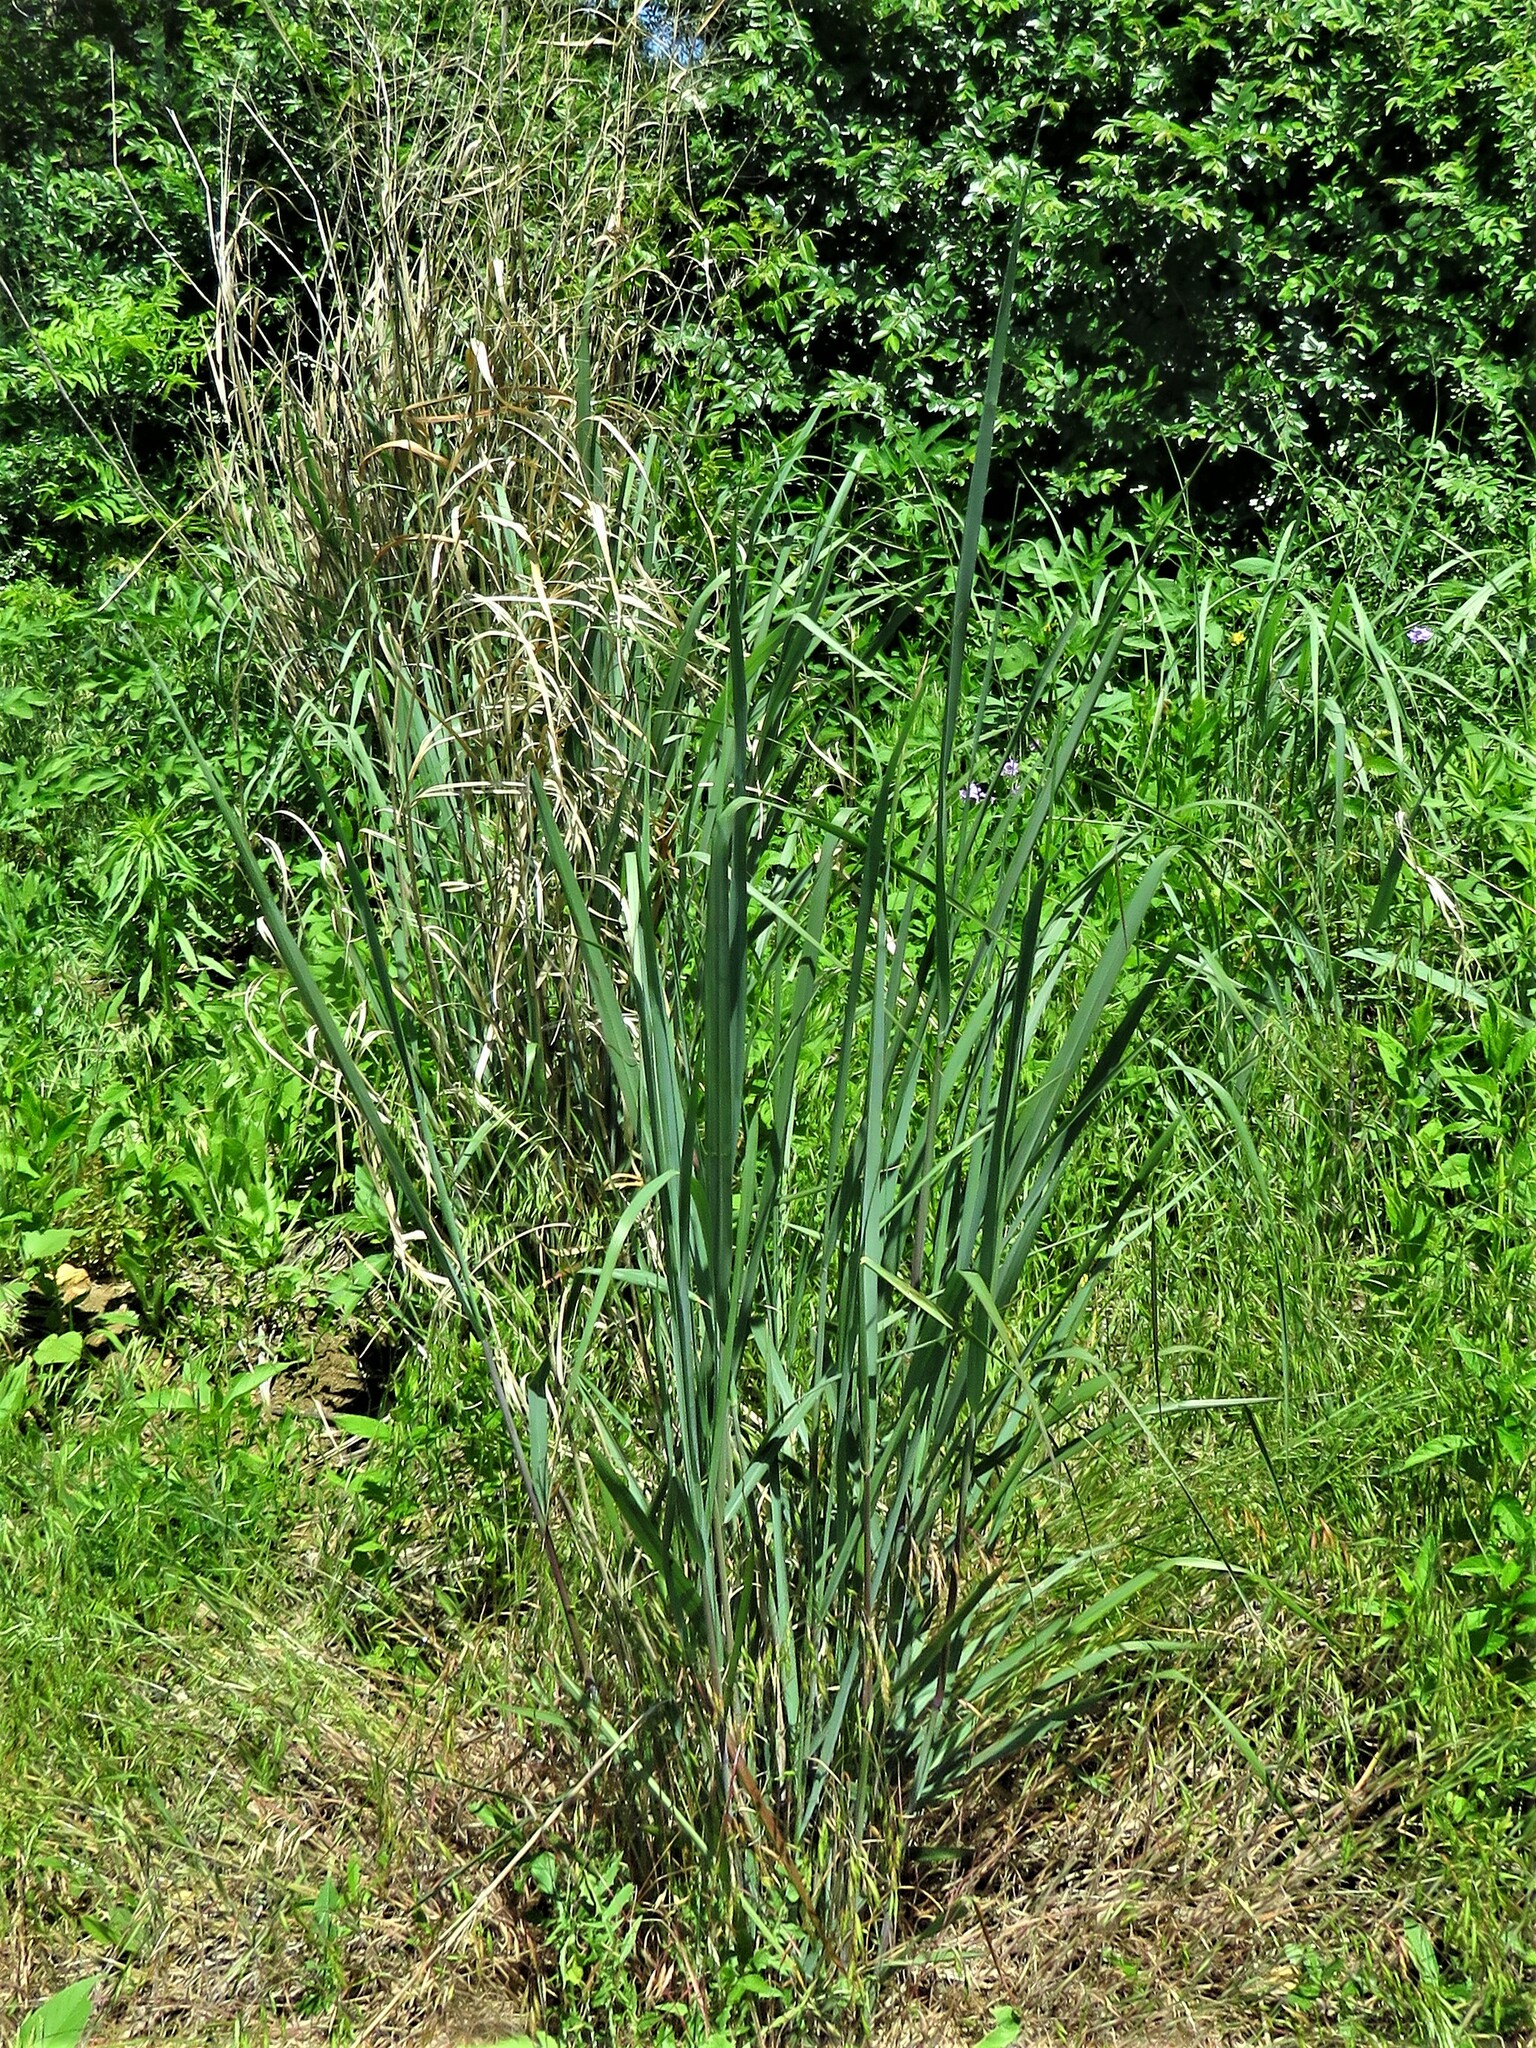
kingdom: Plantae
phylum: Tracheophyta
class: Liliopsida
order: Poales
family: Poaceae
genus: Panicum
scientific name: Panicum virgatum
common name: Switchgrass
